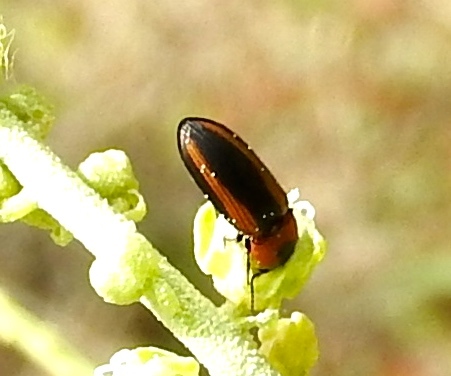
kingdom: Animalia
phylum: Arthropoda
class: Insecta
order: Coleoptera
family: Elateridae
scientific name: Elateridae
